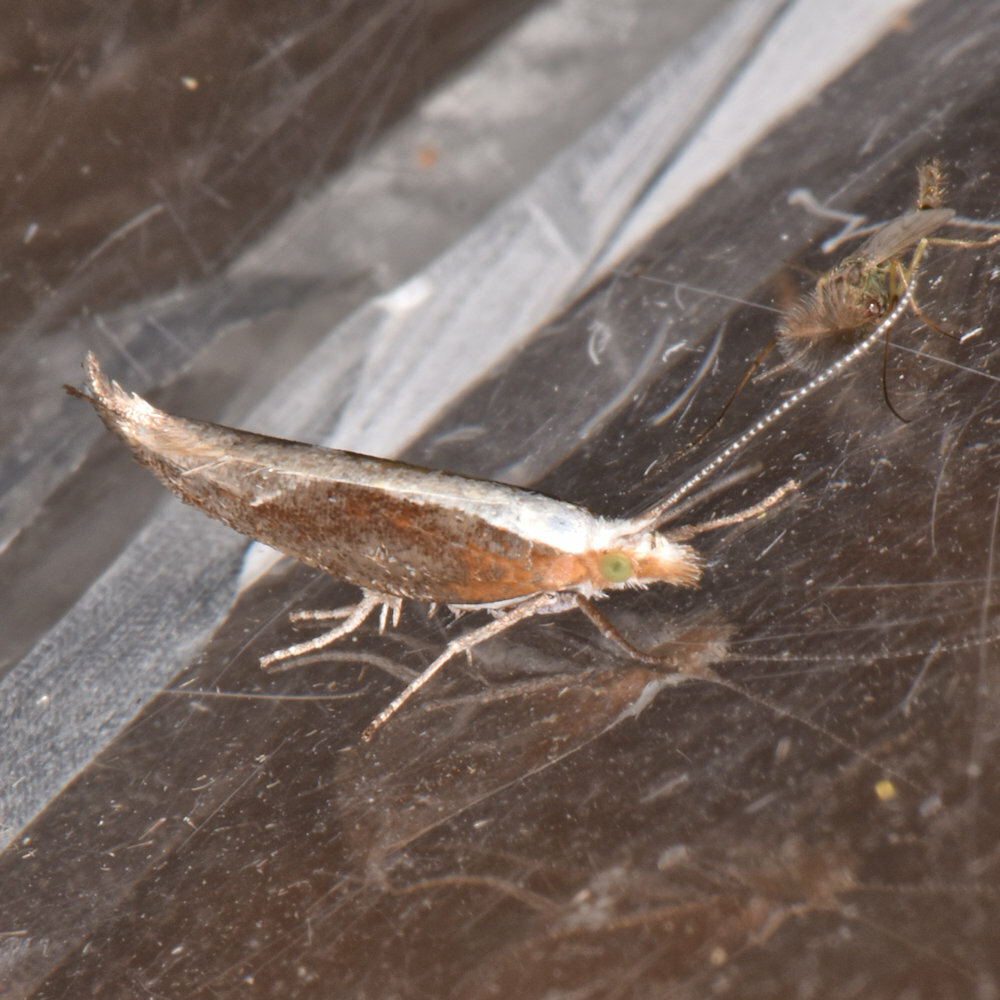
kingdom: Animalia
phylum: Arthropoda
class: Insecta
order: Lepidoptera
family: Ypsolophidae
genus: Ypsolopha
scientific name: Ypsolopha dentella
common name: Honeysuckle moth
